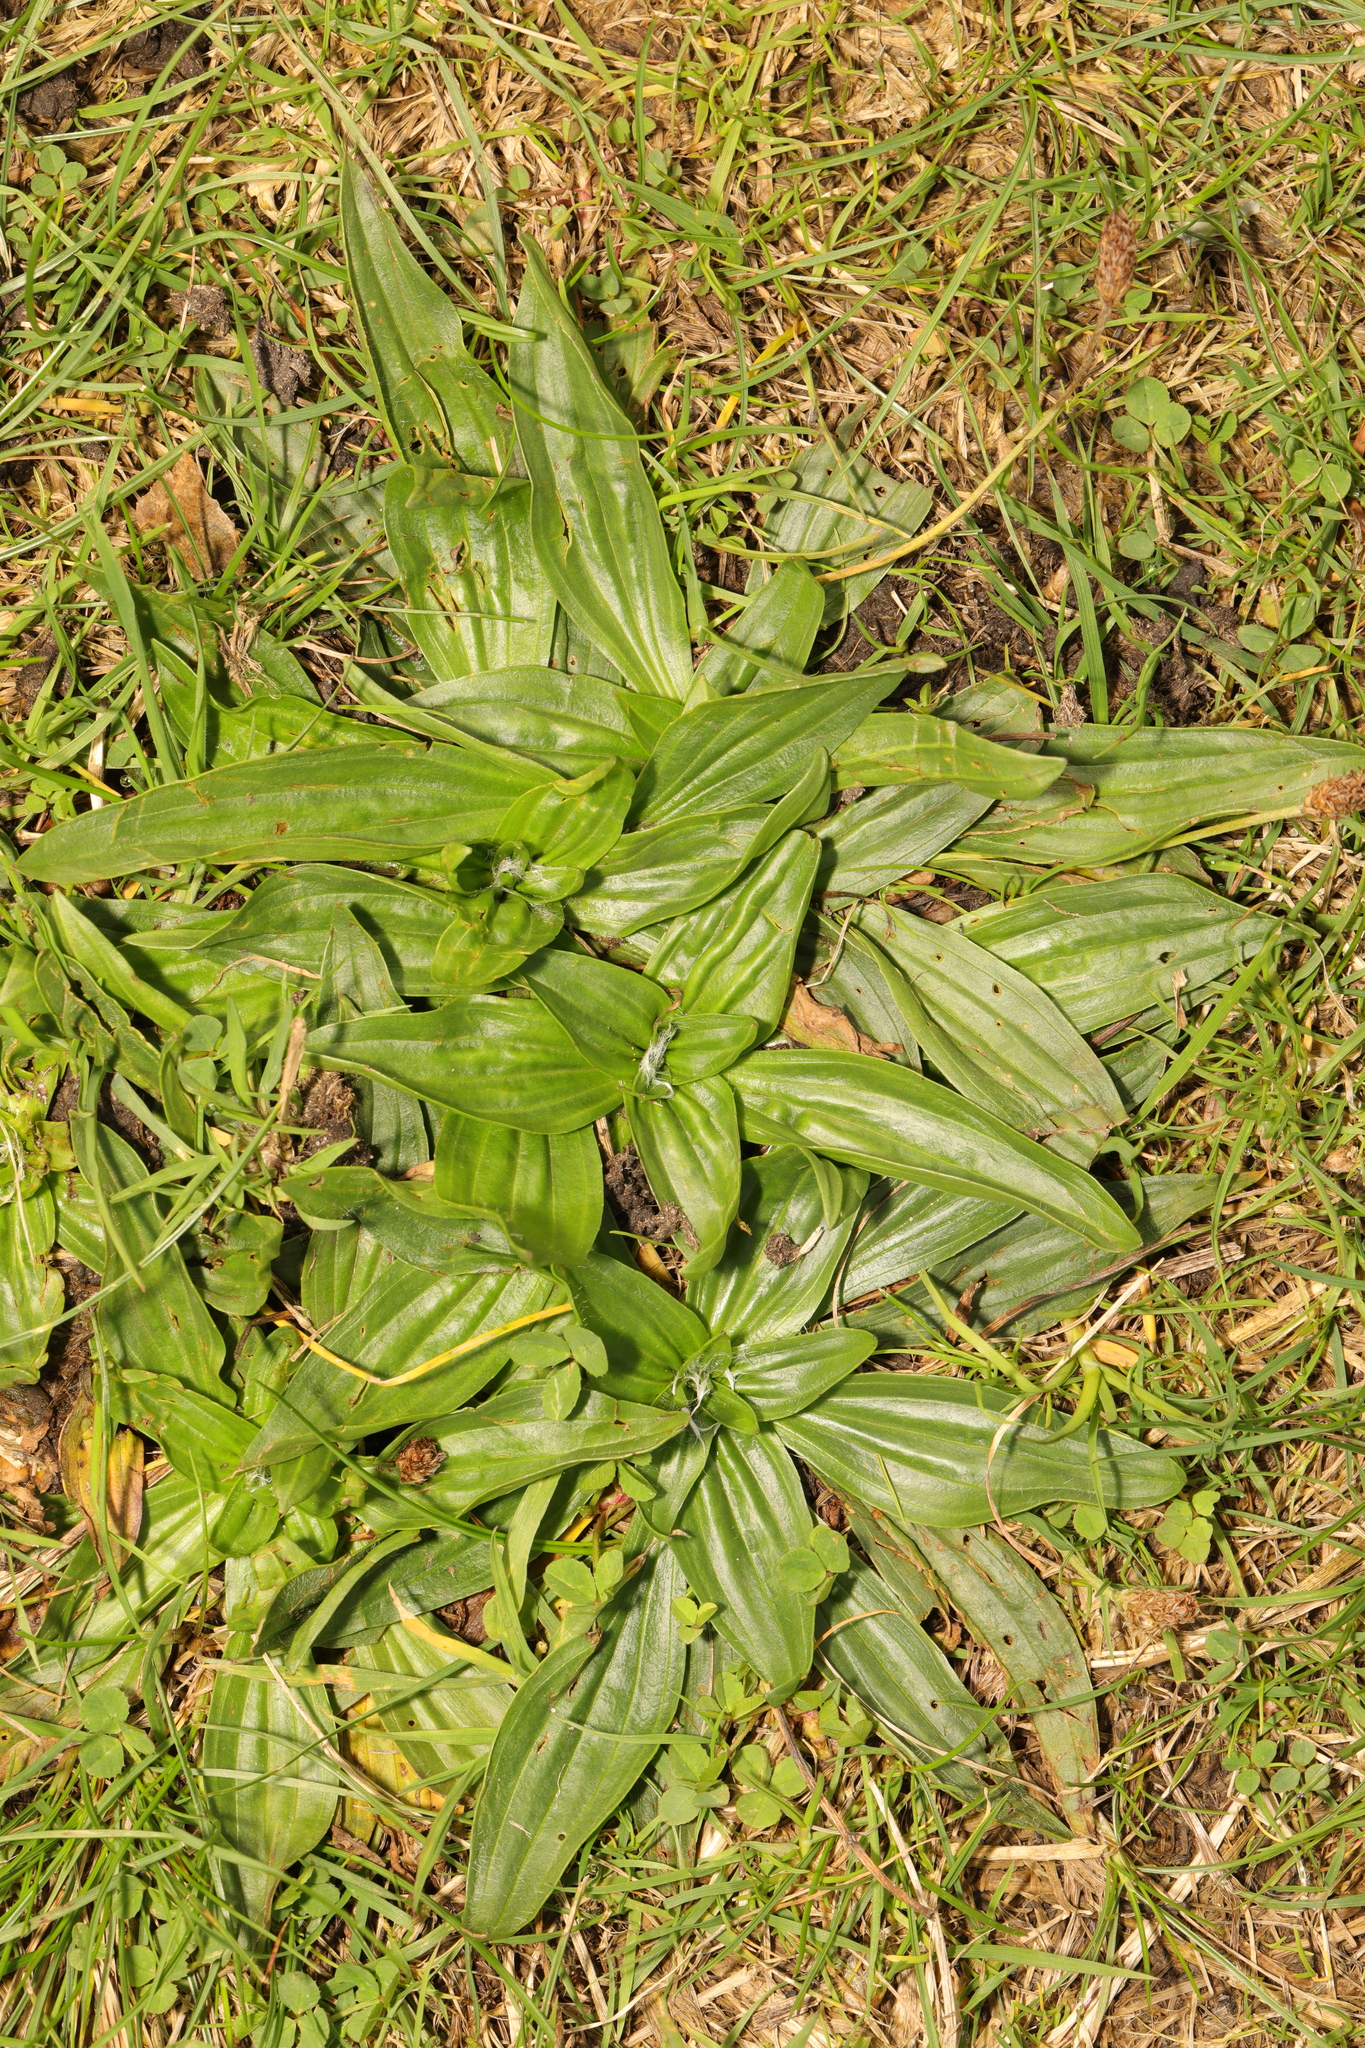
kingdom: Plantae
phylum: Tracheophyta
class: Magnoliopsida
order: Lamiales
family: Plantaginaceae
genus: Plantago
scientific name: Plantago lanceolata
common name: Ribwort plantain
